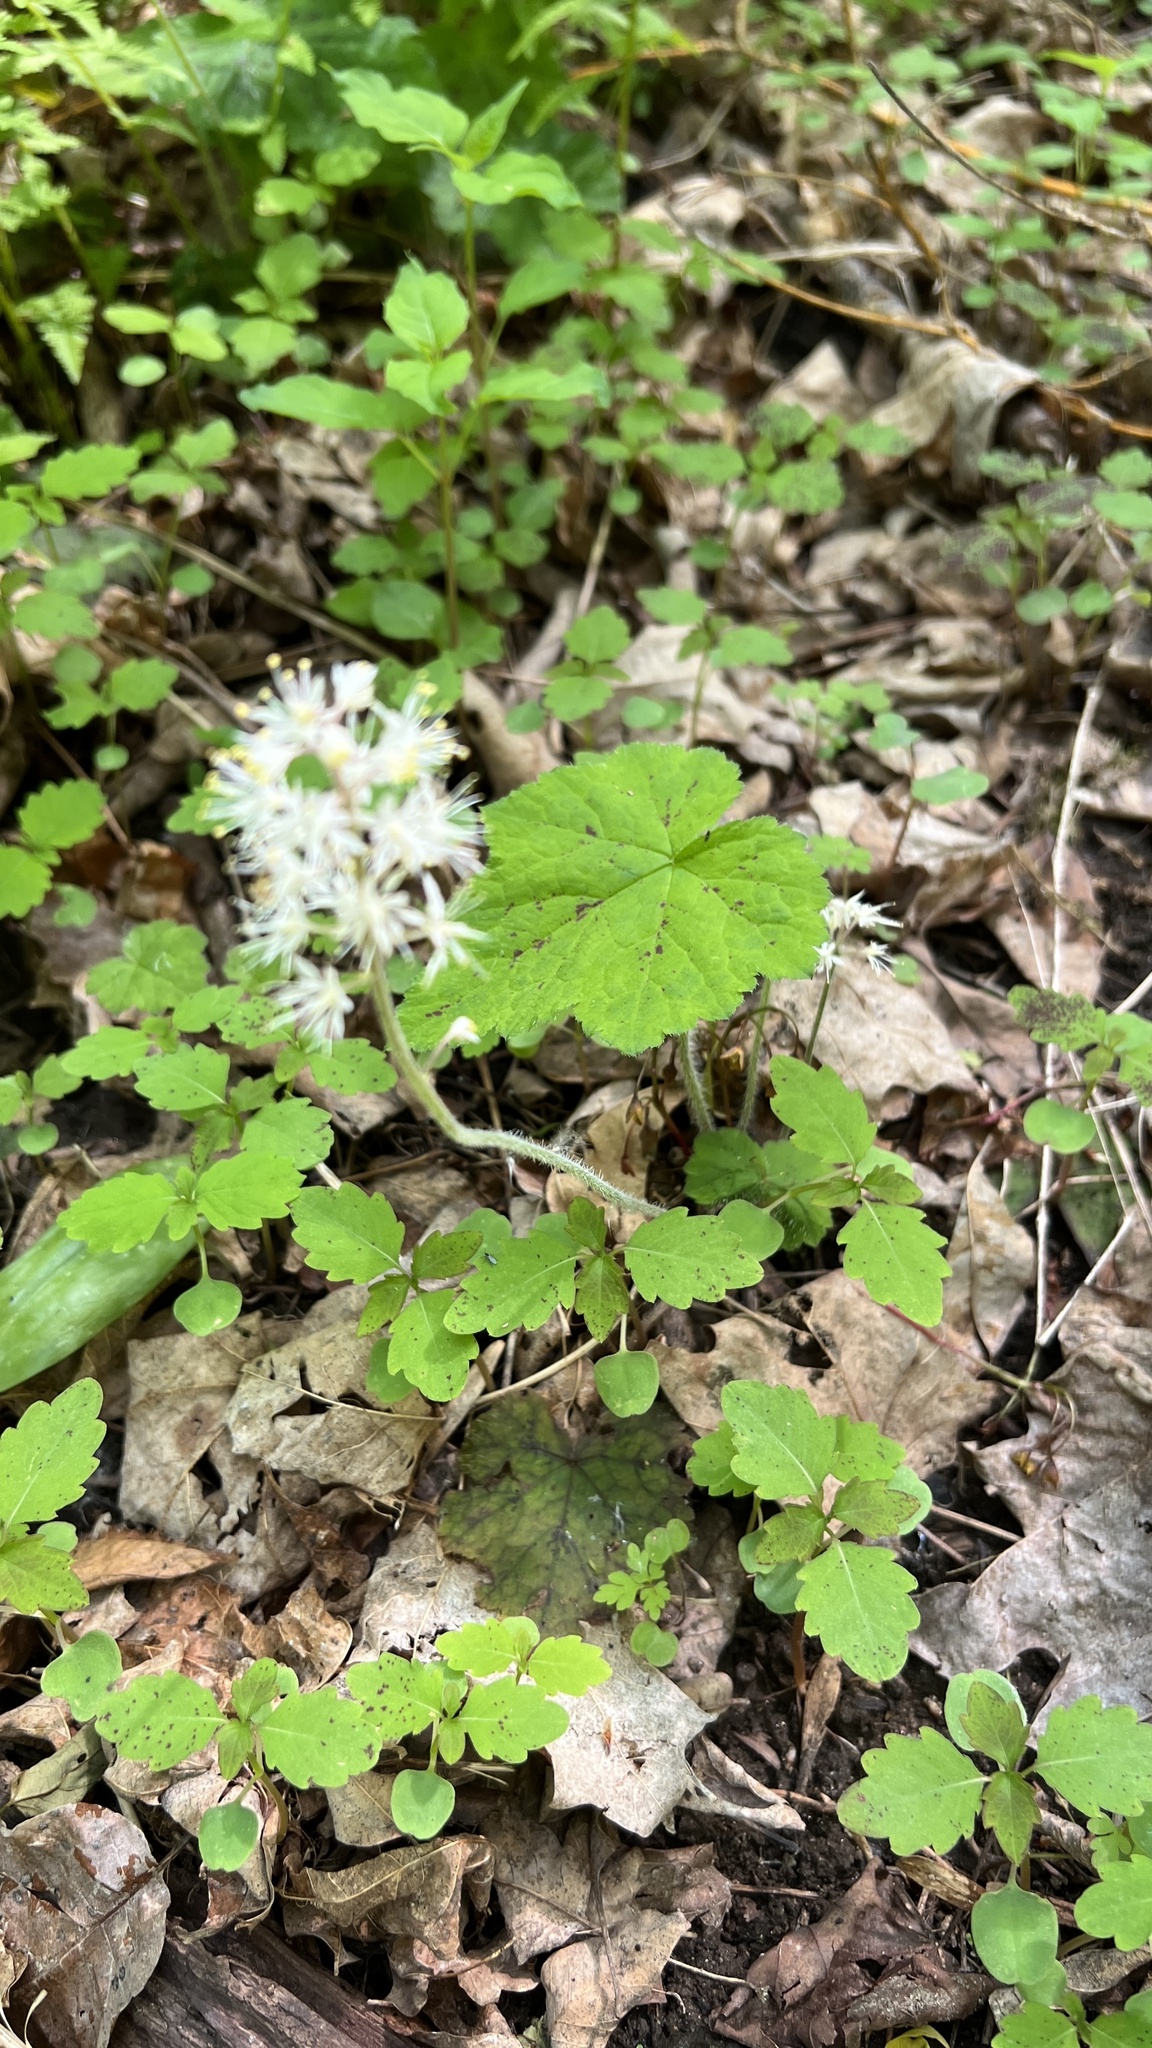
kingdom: Plantae
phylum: Tracheophyta
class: Magnoliopsida
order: Saxifragales
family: Saxifragaceae
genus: Tiarella
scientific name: Tiarella stolonifera
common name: Stoloniferous foamflower
